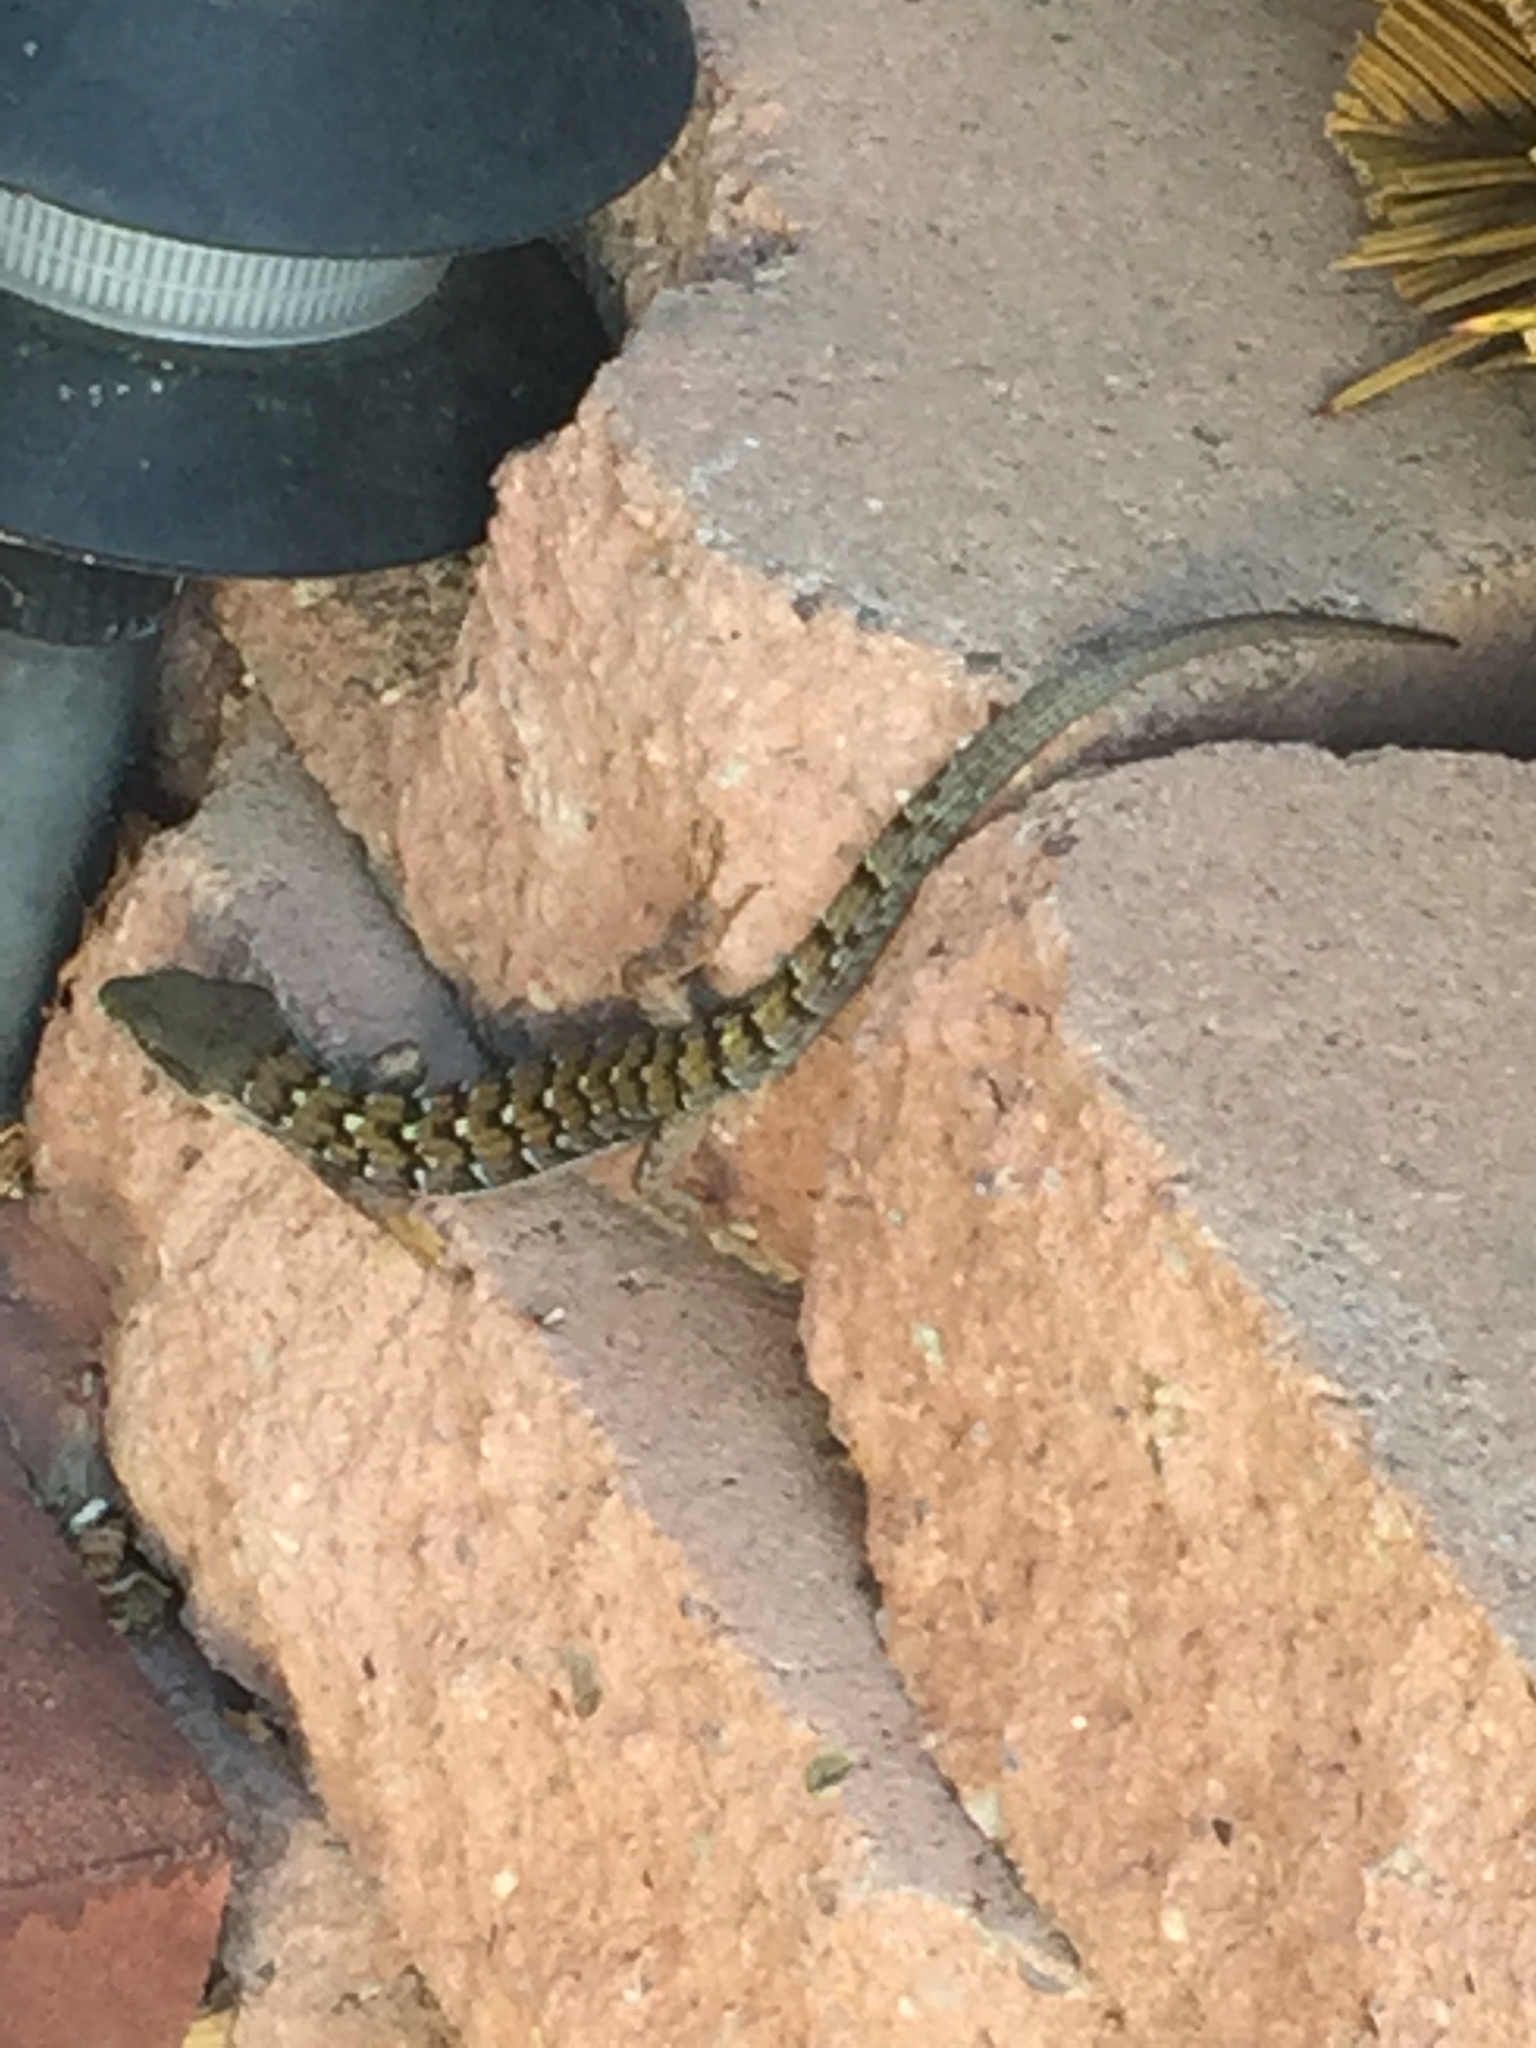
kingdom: Animalia
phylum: Chordata
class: Squamata
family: Anguidae
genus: Elgaria
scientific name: Elgaria multicarinata
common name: Southern alligator lizard
